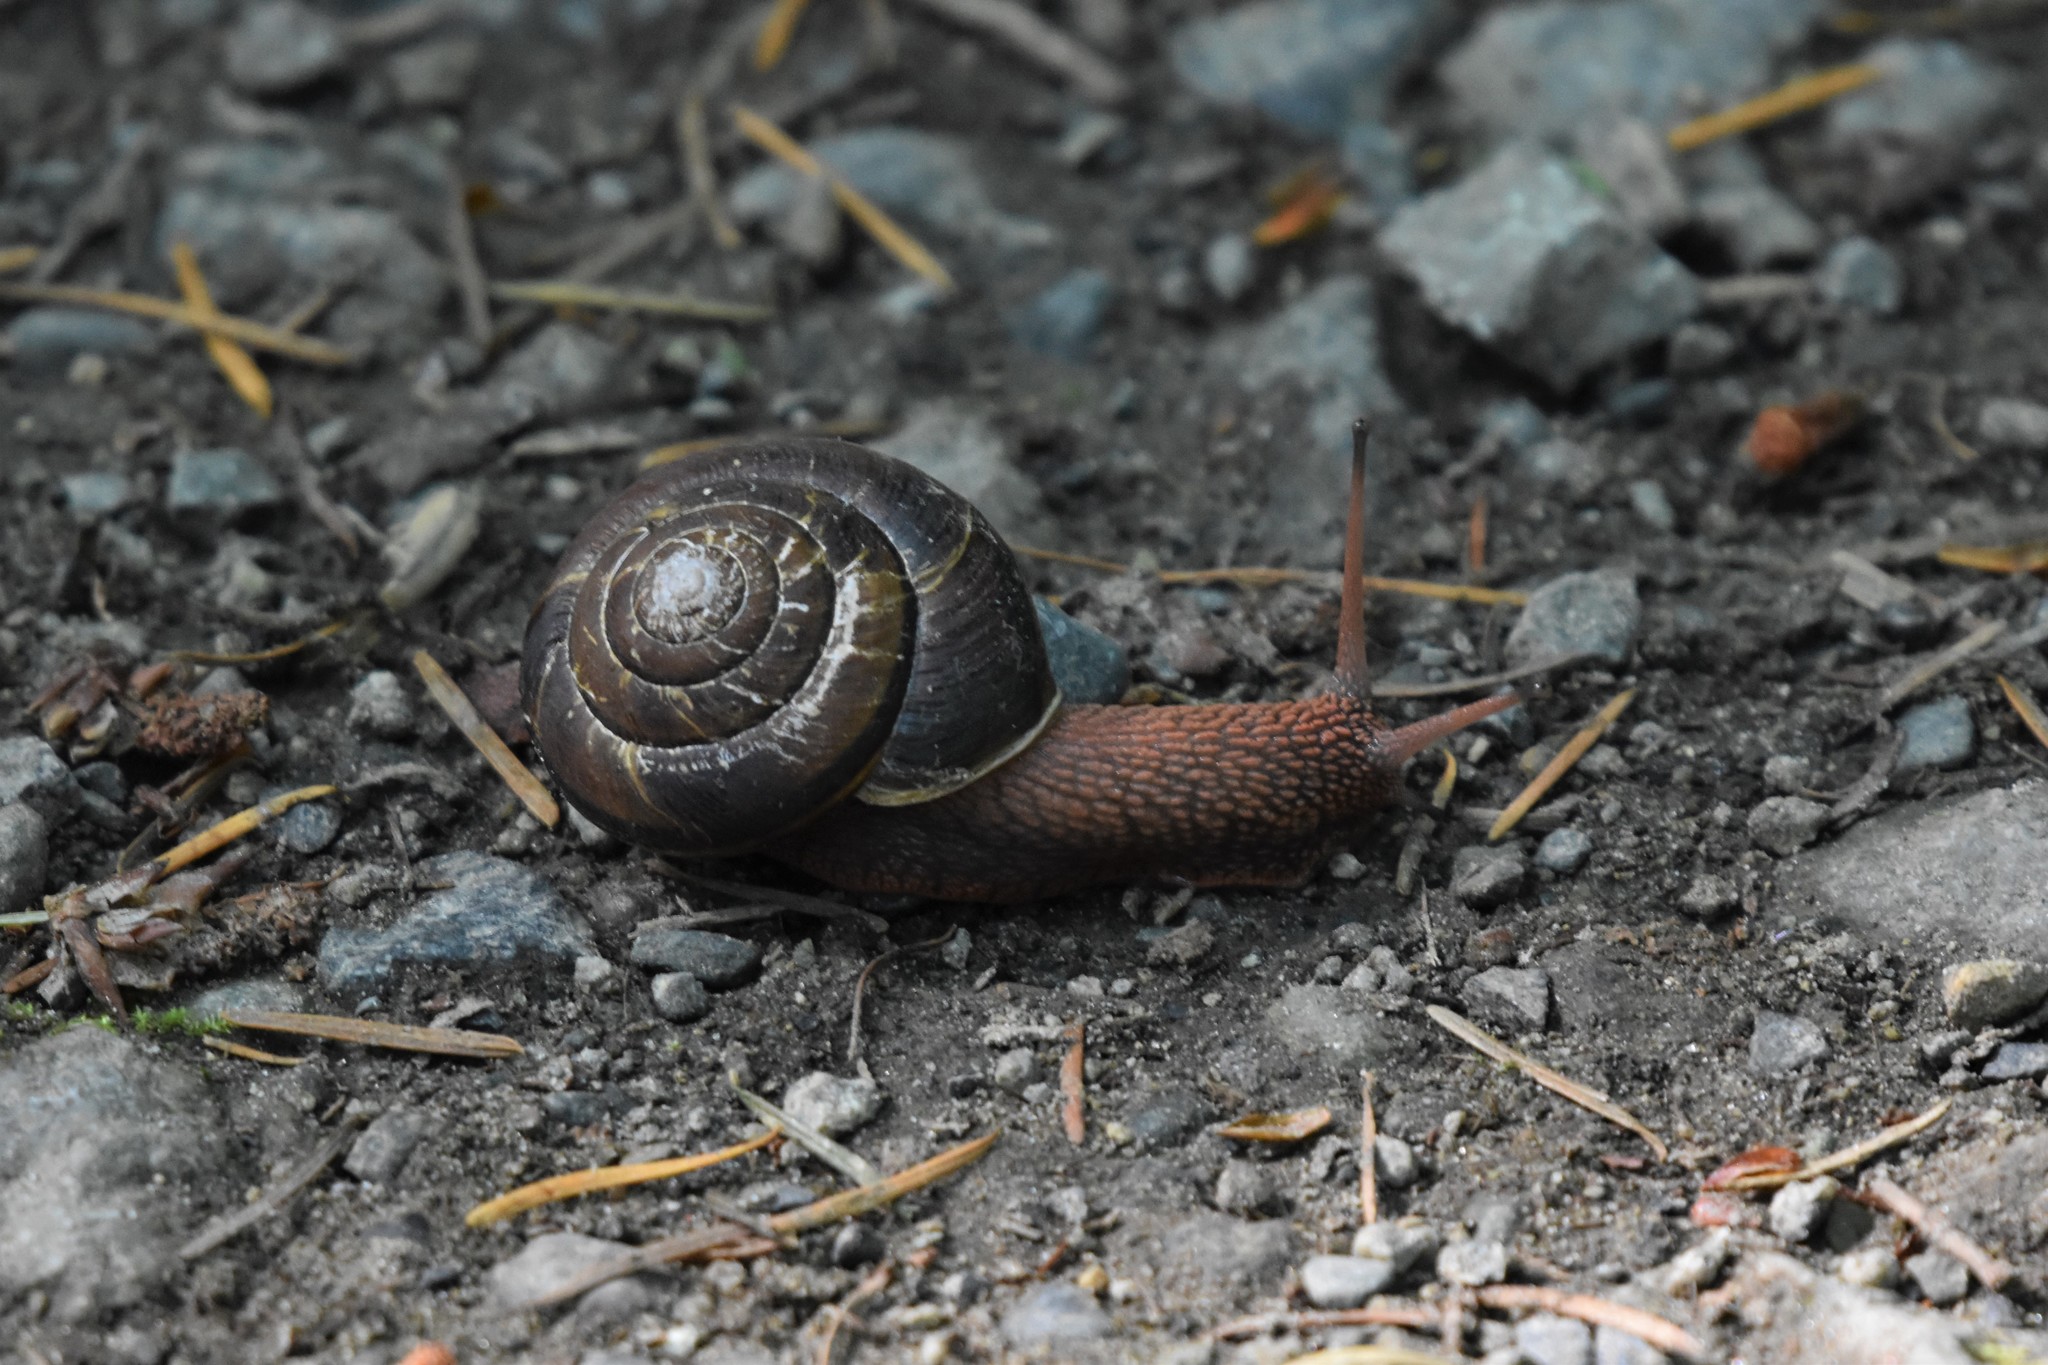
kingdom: Animalia
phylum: Mollusca
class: Gastropoda
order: Stylommatophora
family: Xanthonychidae
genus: Monadenia
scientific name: Monadenia fidelis
